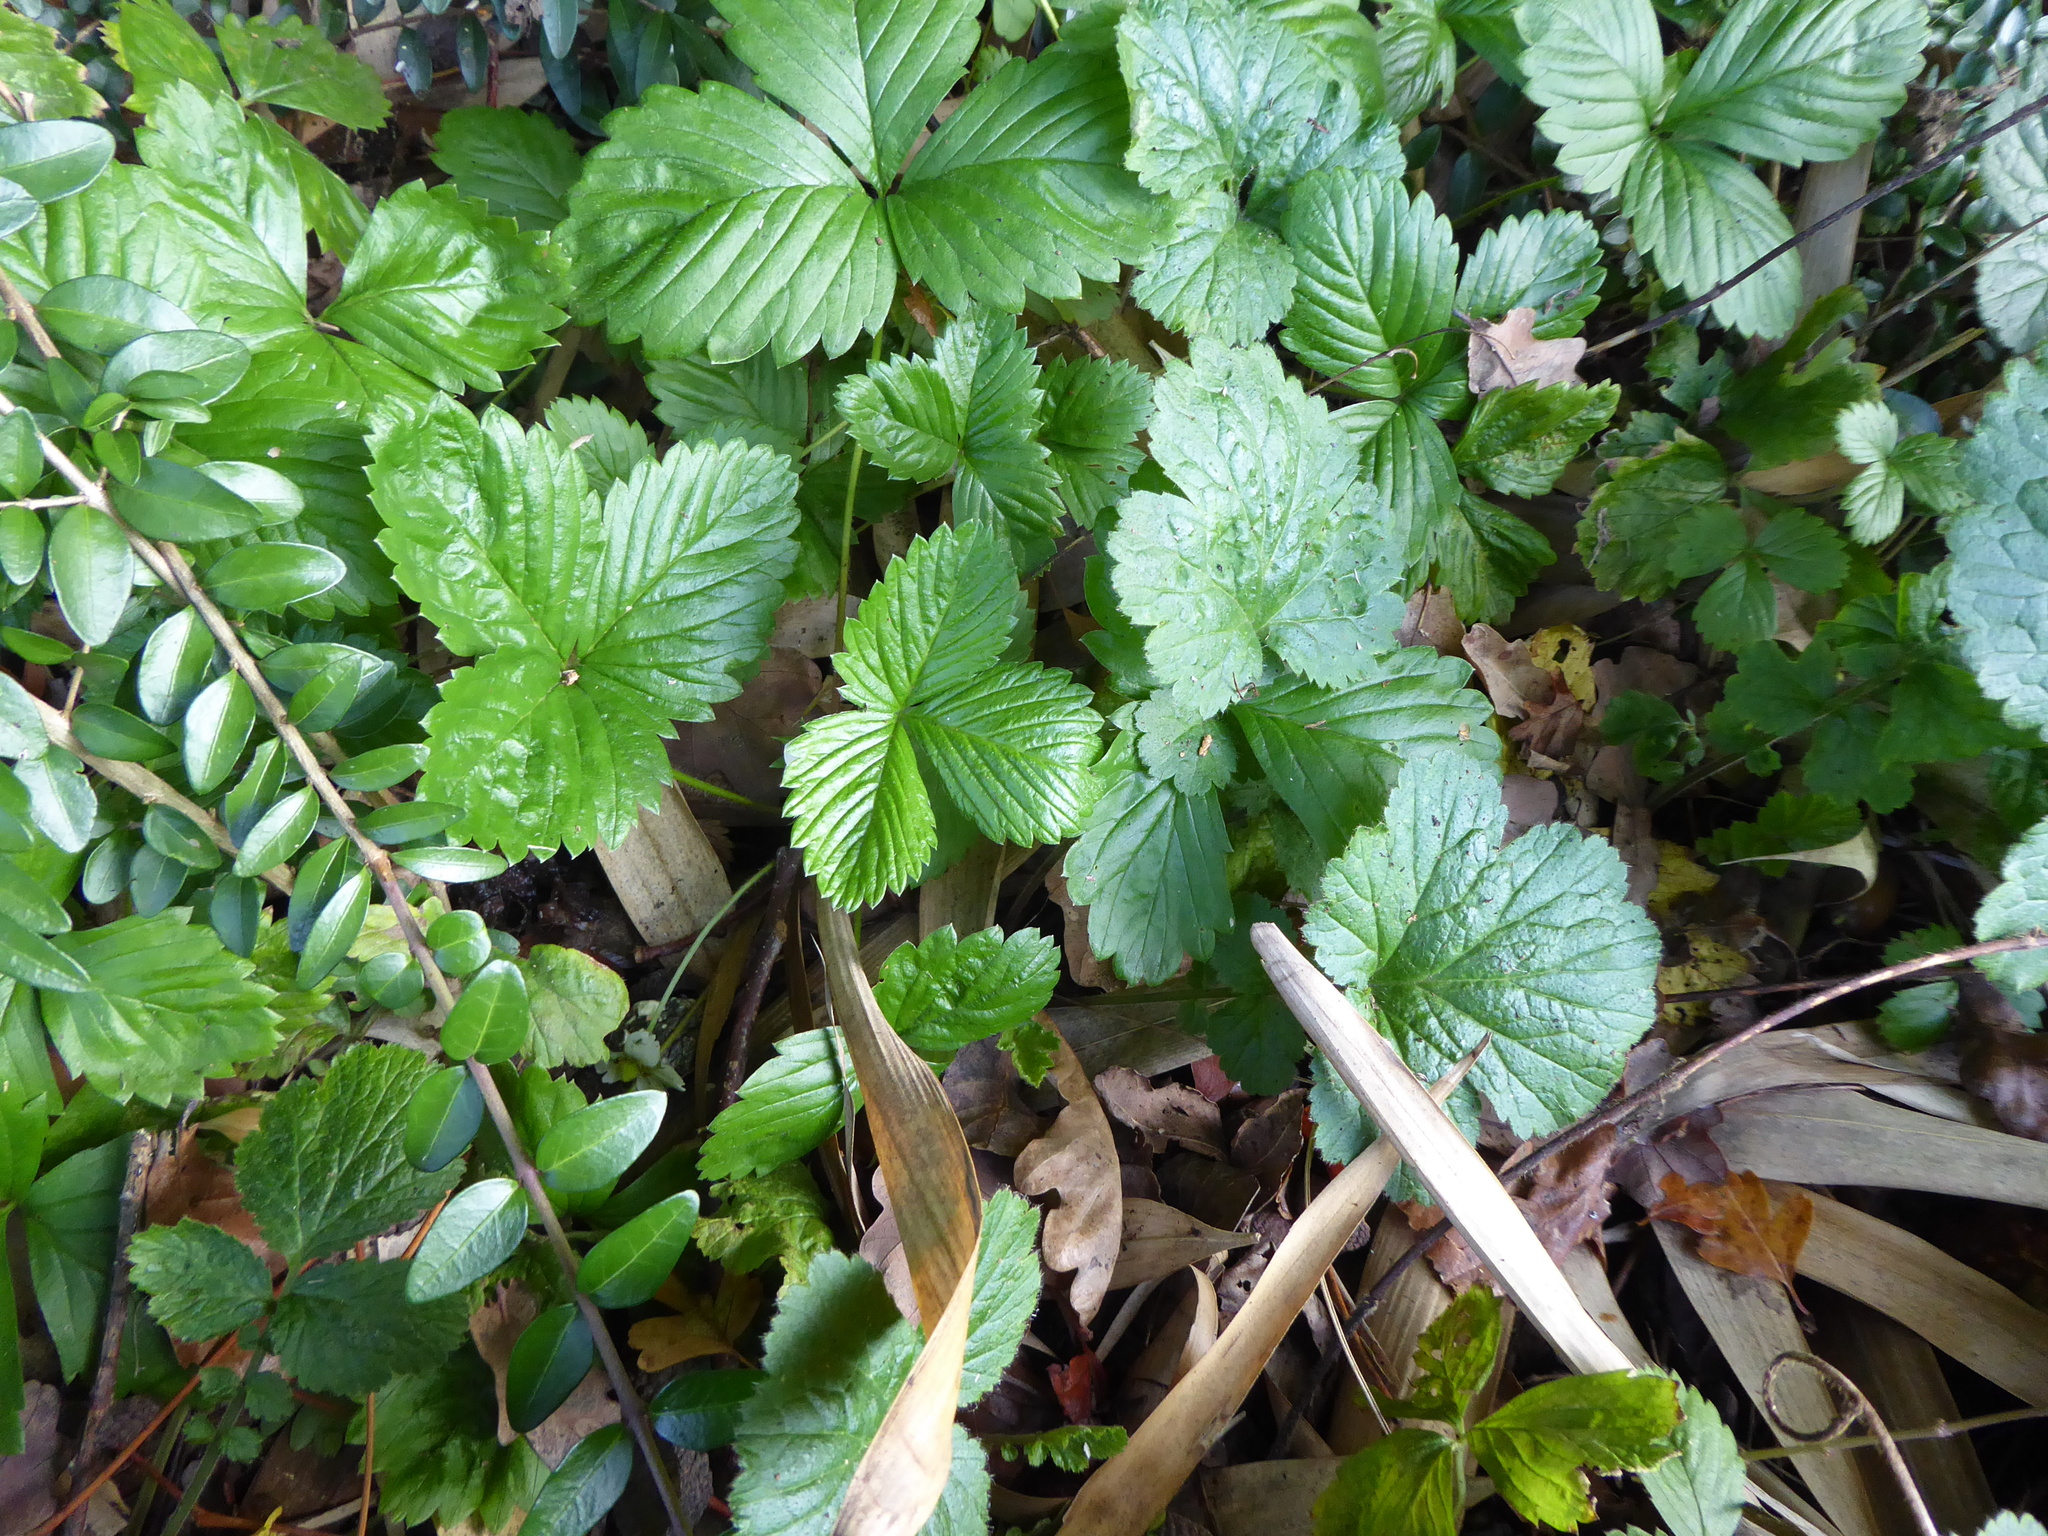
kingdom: Plantae
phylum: Tracheophyta
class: Magnoliopsida
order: Rosales
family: Rosaceae
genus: Fragaria
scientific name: Fragaria vesca
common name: Wild strawberry
